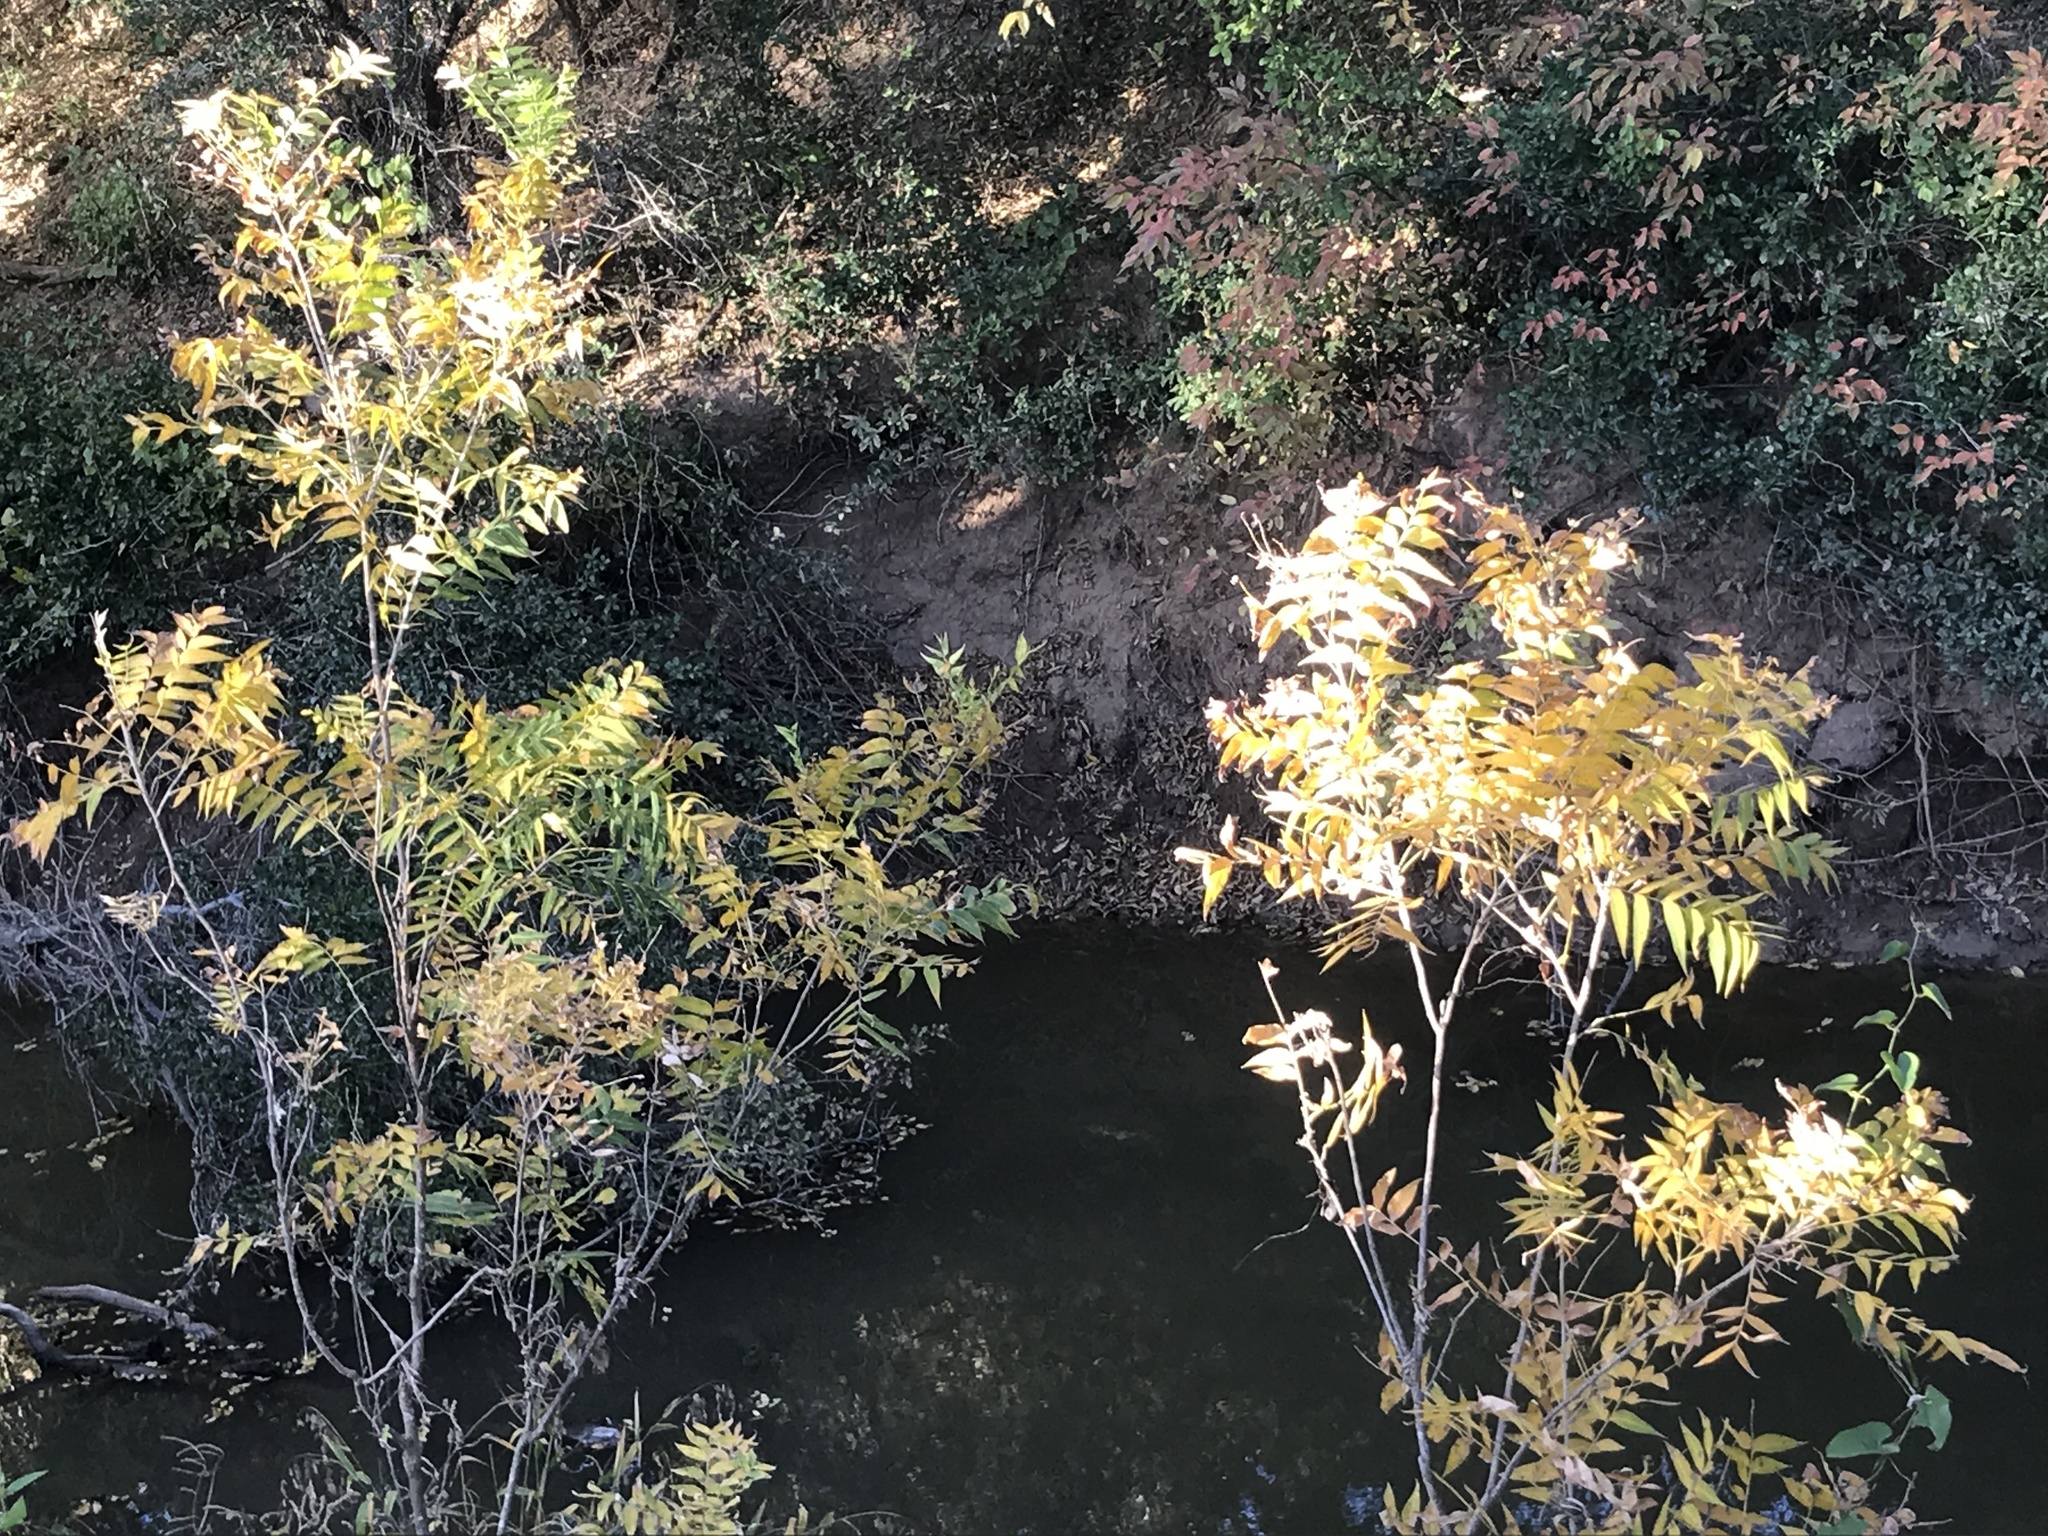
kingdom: Plantae
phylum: Tracheophyta
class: Magnoliopsida
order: Sapindales
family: Sapindaceae
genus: Sapindus
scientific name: Sapindus drummondii
